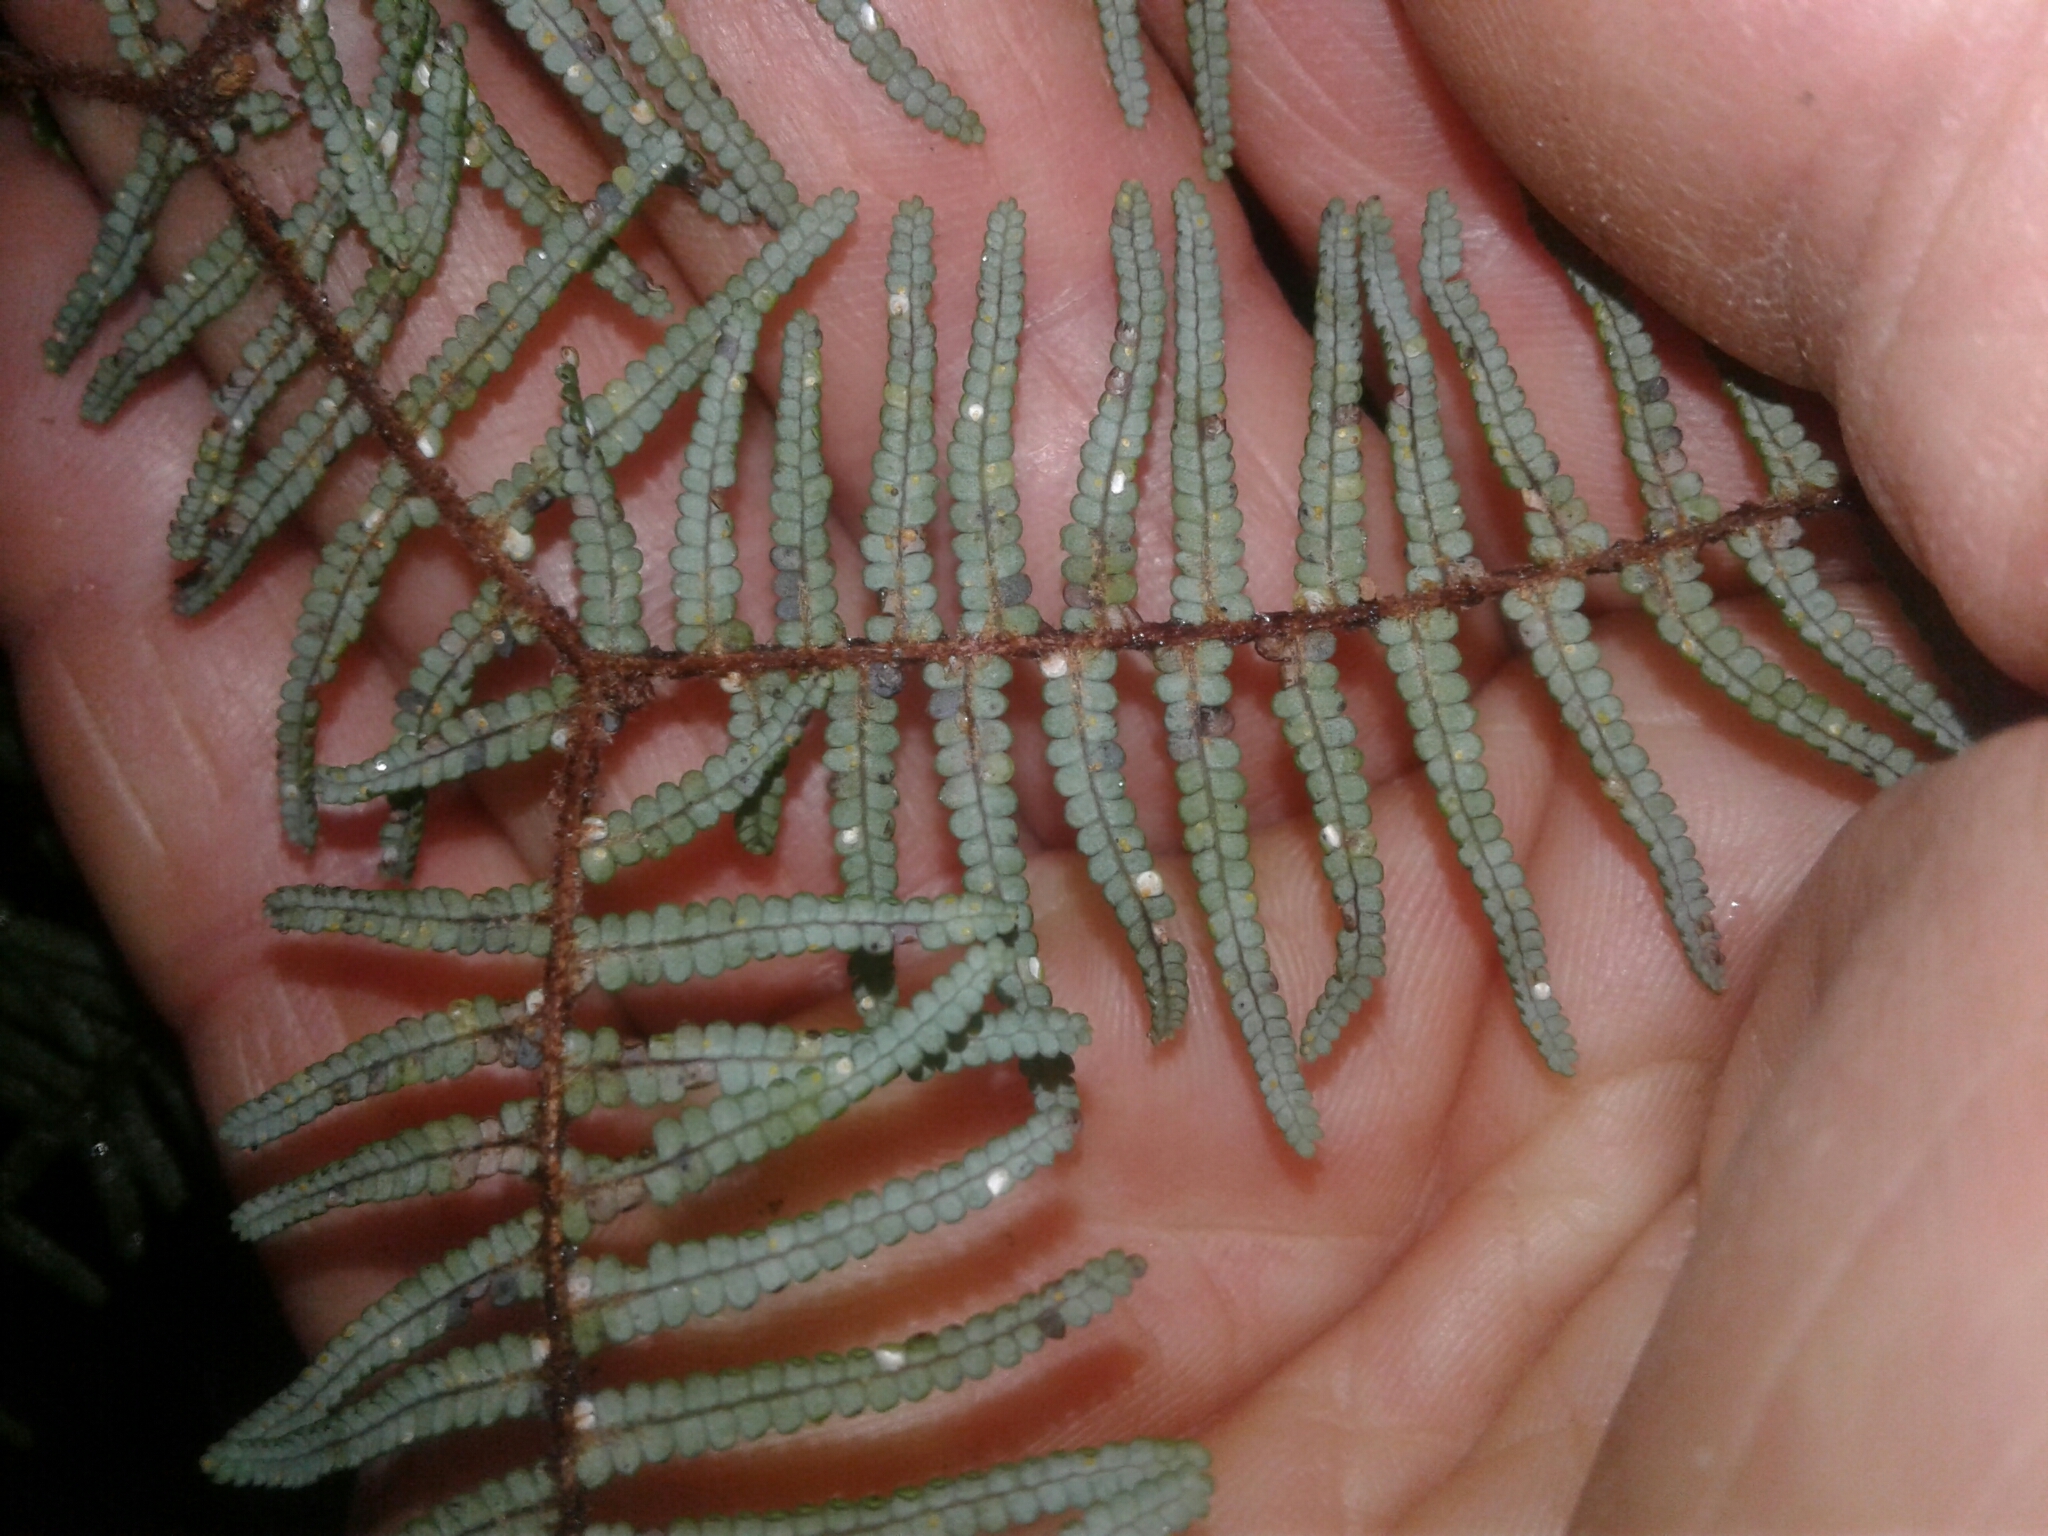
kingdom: Plantae
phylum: Tracheophyta
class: Polypodiopsida
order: Gleicheniales
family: Gleicheniaceae
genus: Gleichenia
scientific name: Gleichenia punctulata
